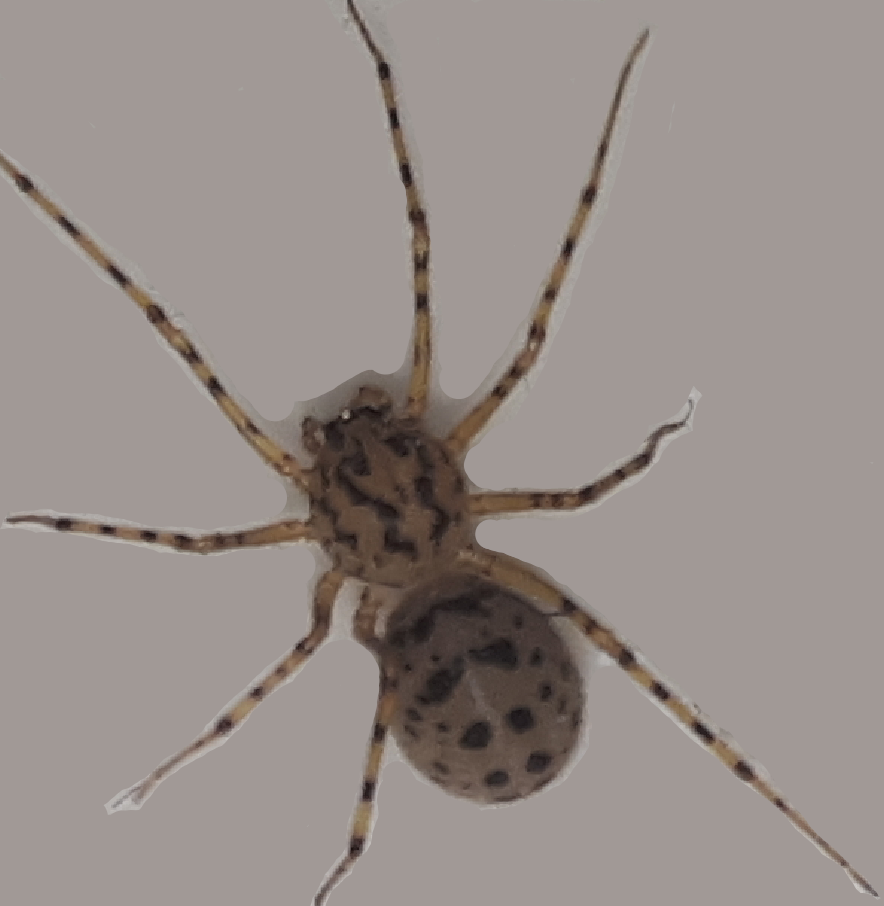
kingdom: Animalia
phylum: Arthropoda
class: Arachnida
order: Araneae
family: Scytodidae
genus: Scytodes
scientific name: Scytodes thoracica
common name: Spitting spider
